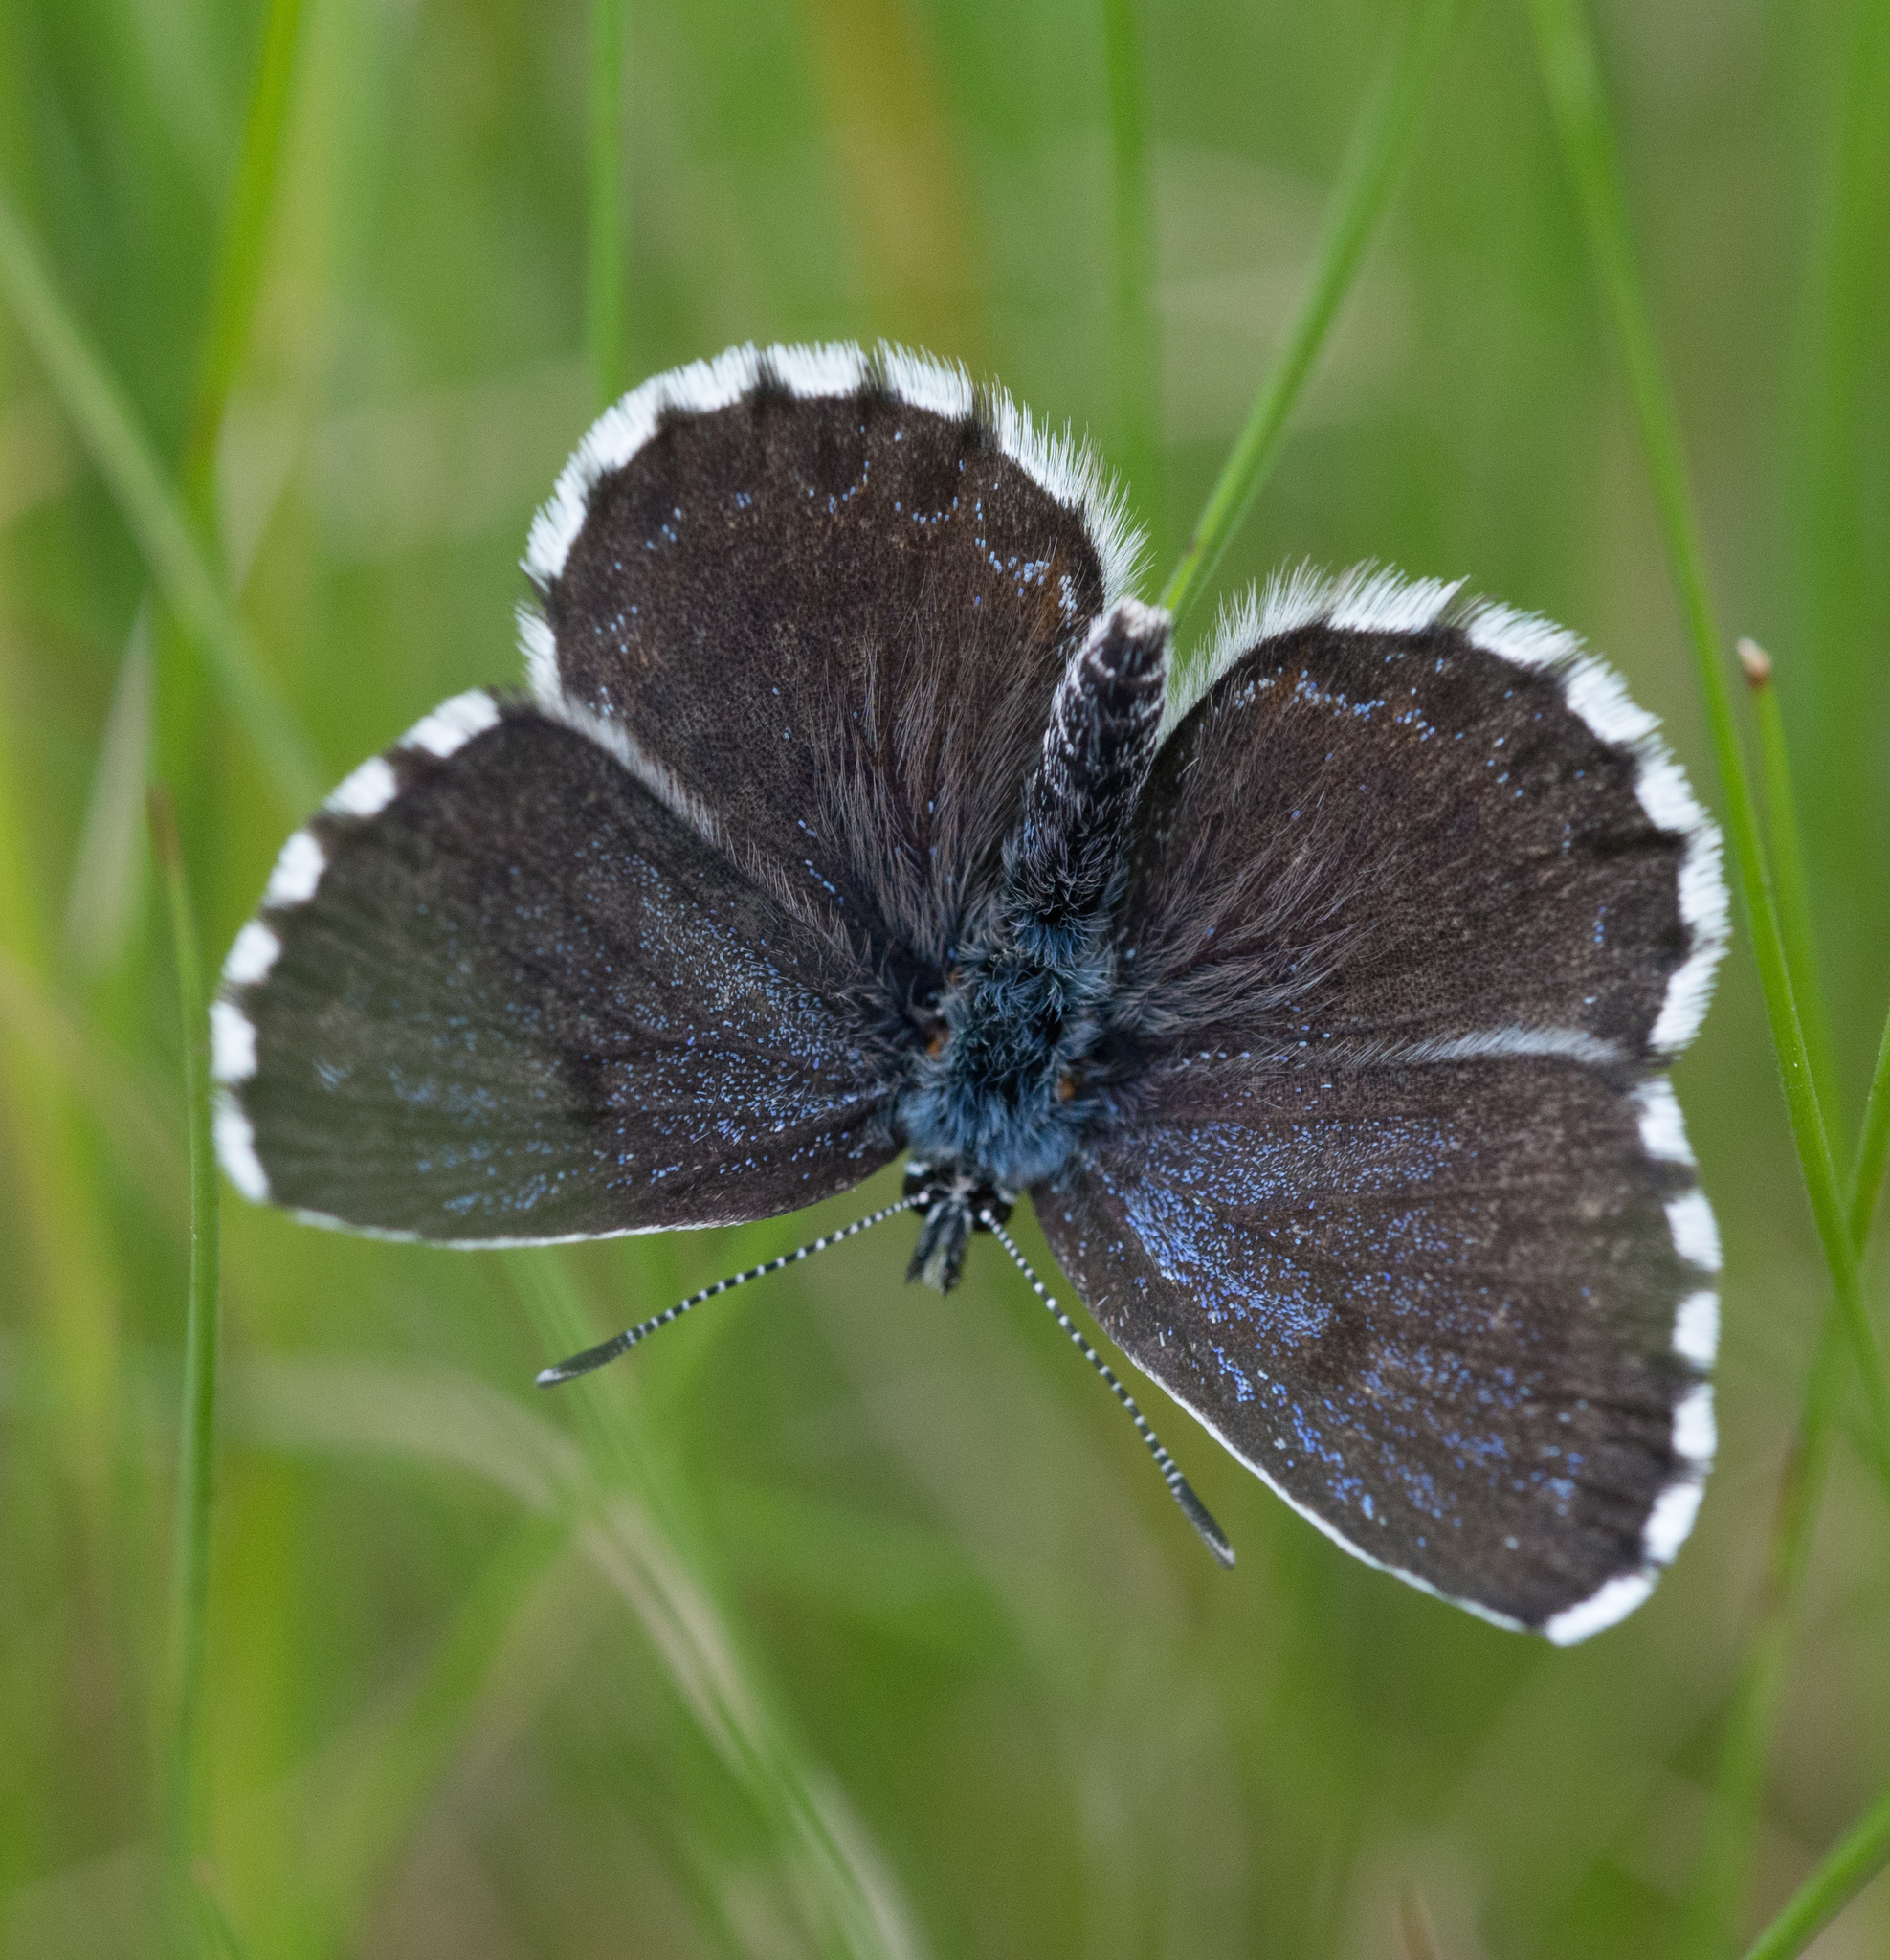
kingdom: Animalia
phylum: Arthropoda
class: Insecta
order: Lepidoptera
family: Lycaenidae
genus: Scolitantides
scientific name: Scolitantides orion
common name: Chequered blue
